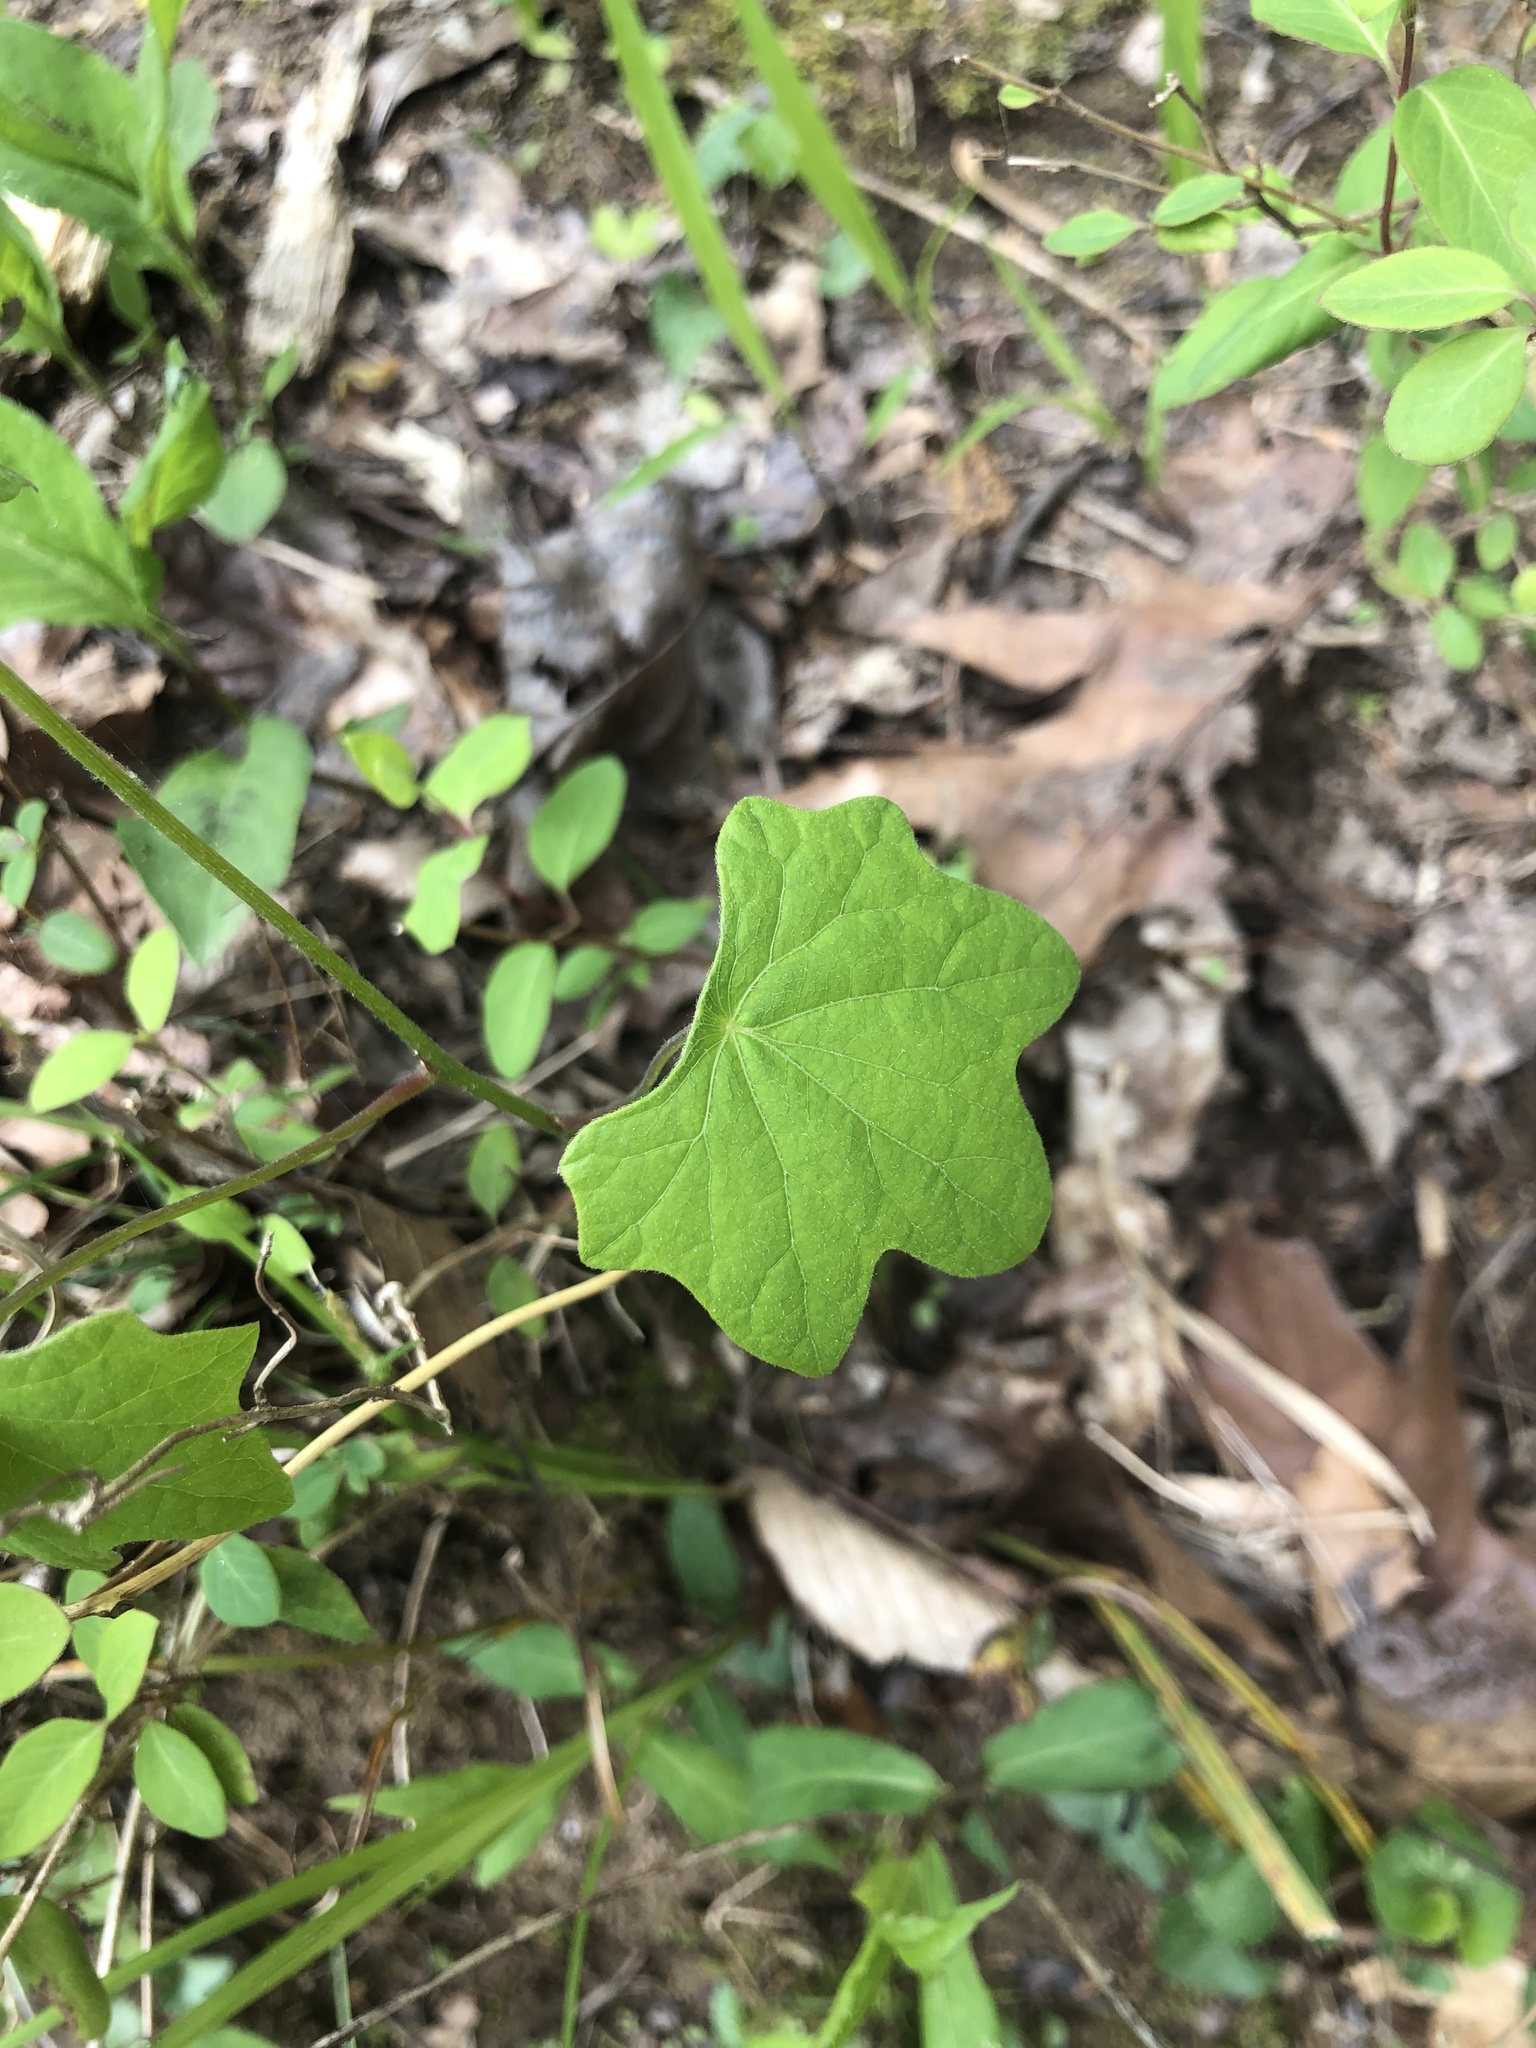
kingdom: Plantae
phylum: Tracheophyta
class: Magnoliopsida
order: Ranunculales
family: Menispermaceae
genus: Menispermum
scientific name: Menispermum canadense
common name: Moonseed
